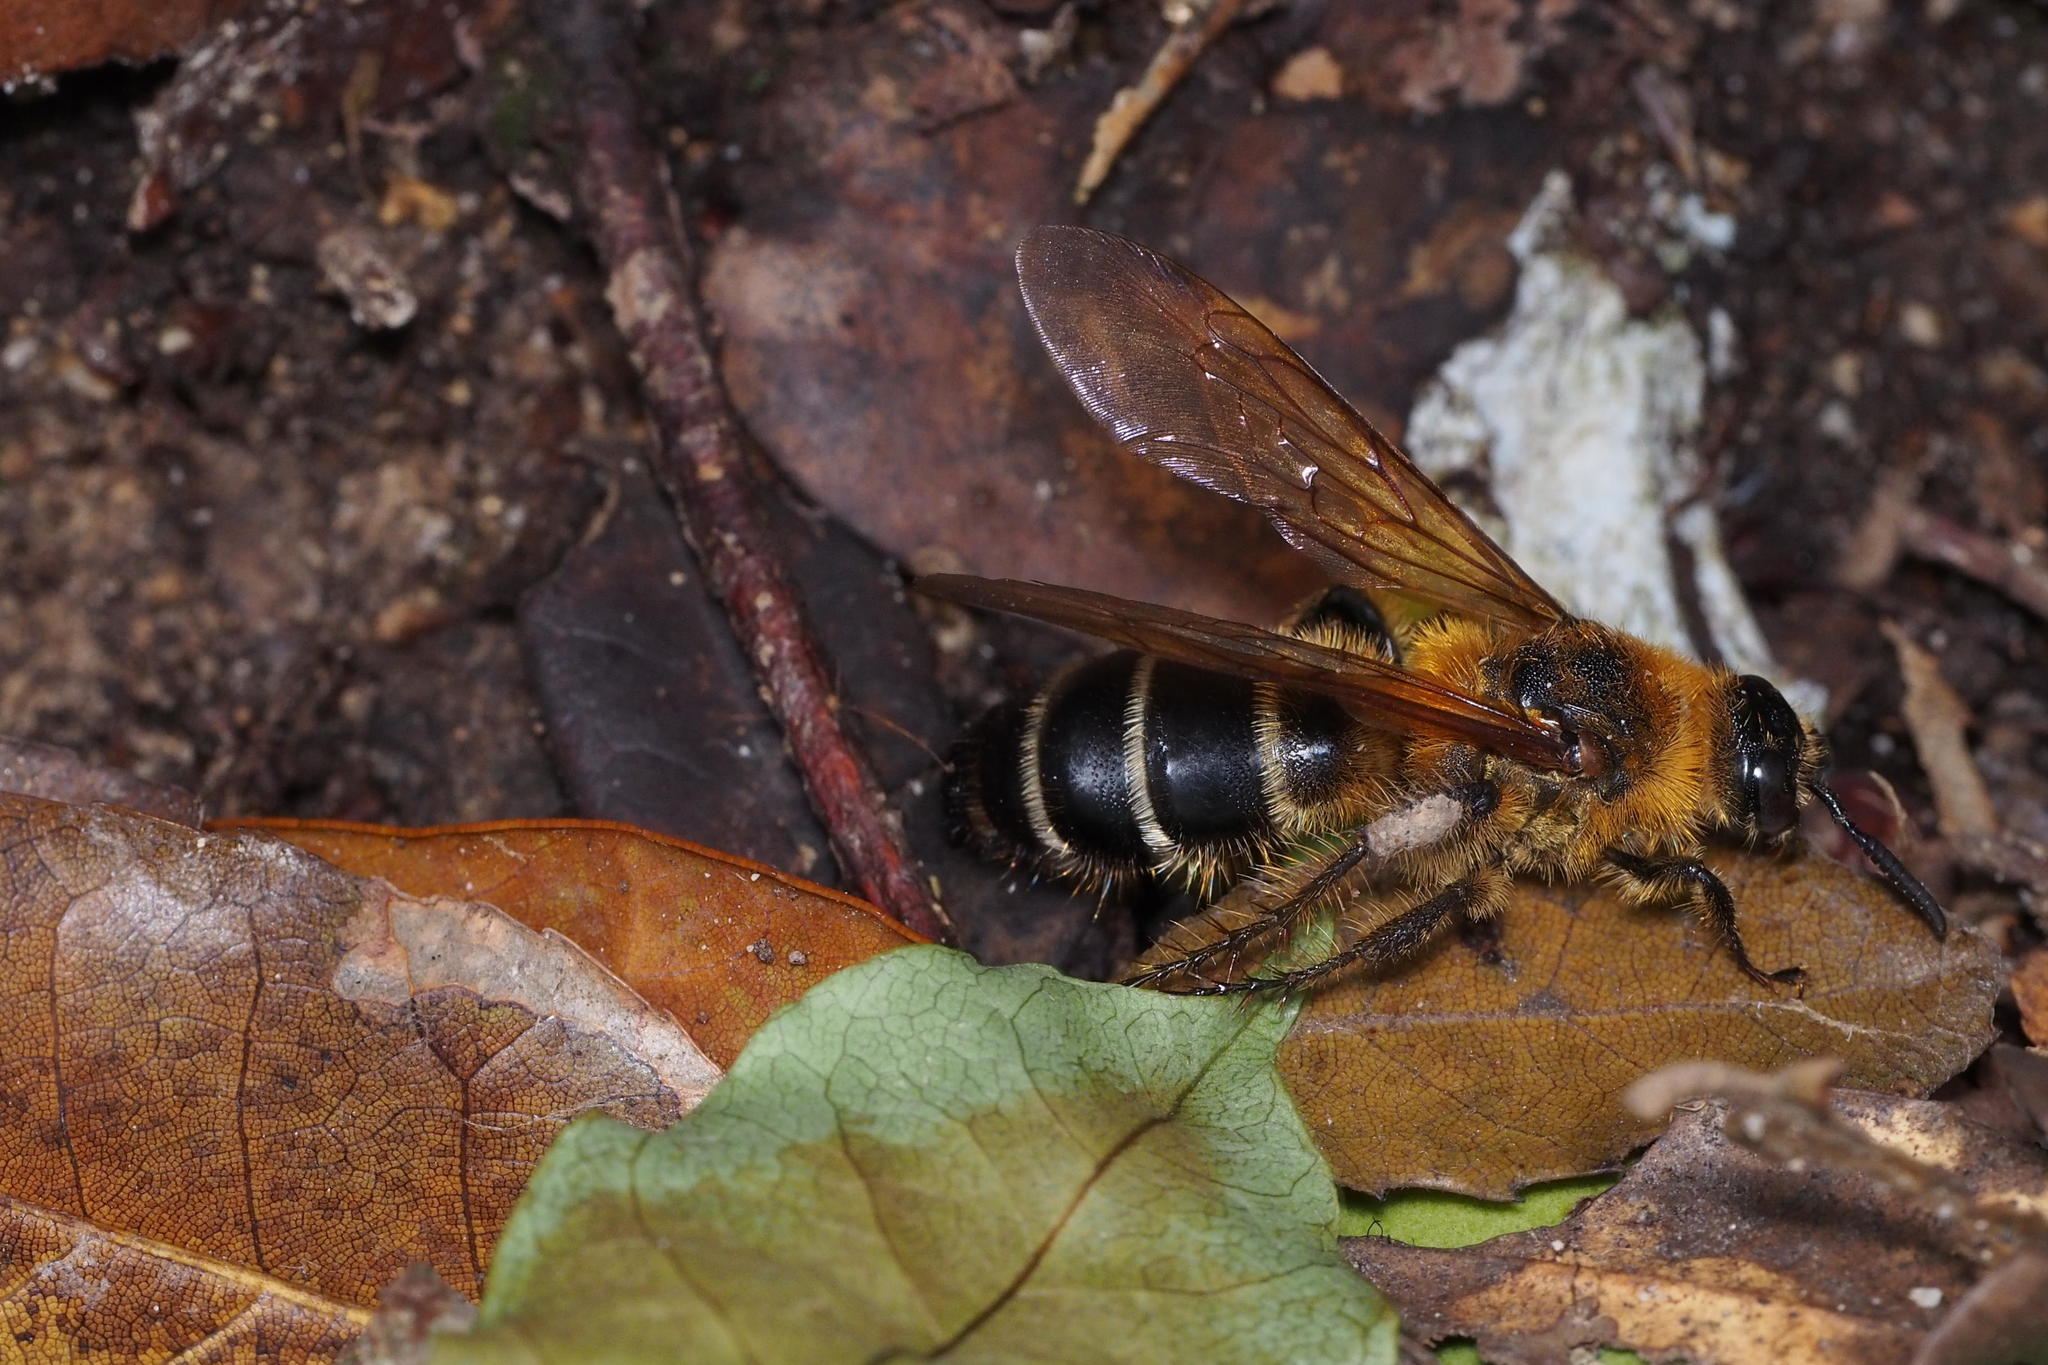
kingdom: Animalia
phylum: Arthropoda
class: Insecta
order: Hymenoptera
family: Scoliidae
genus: Campsomeris
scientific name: Campsomeris prismatica
